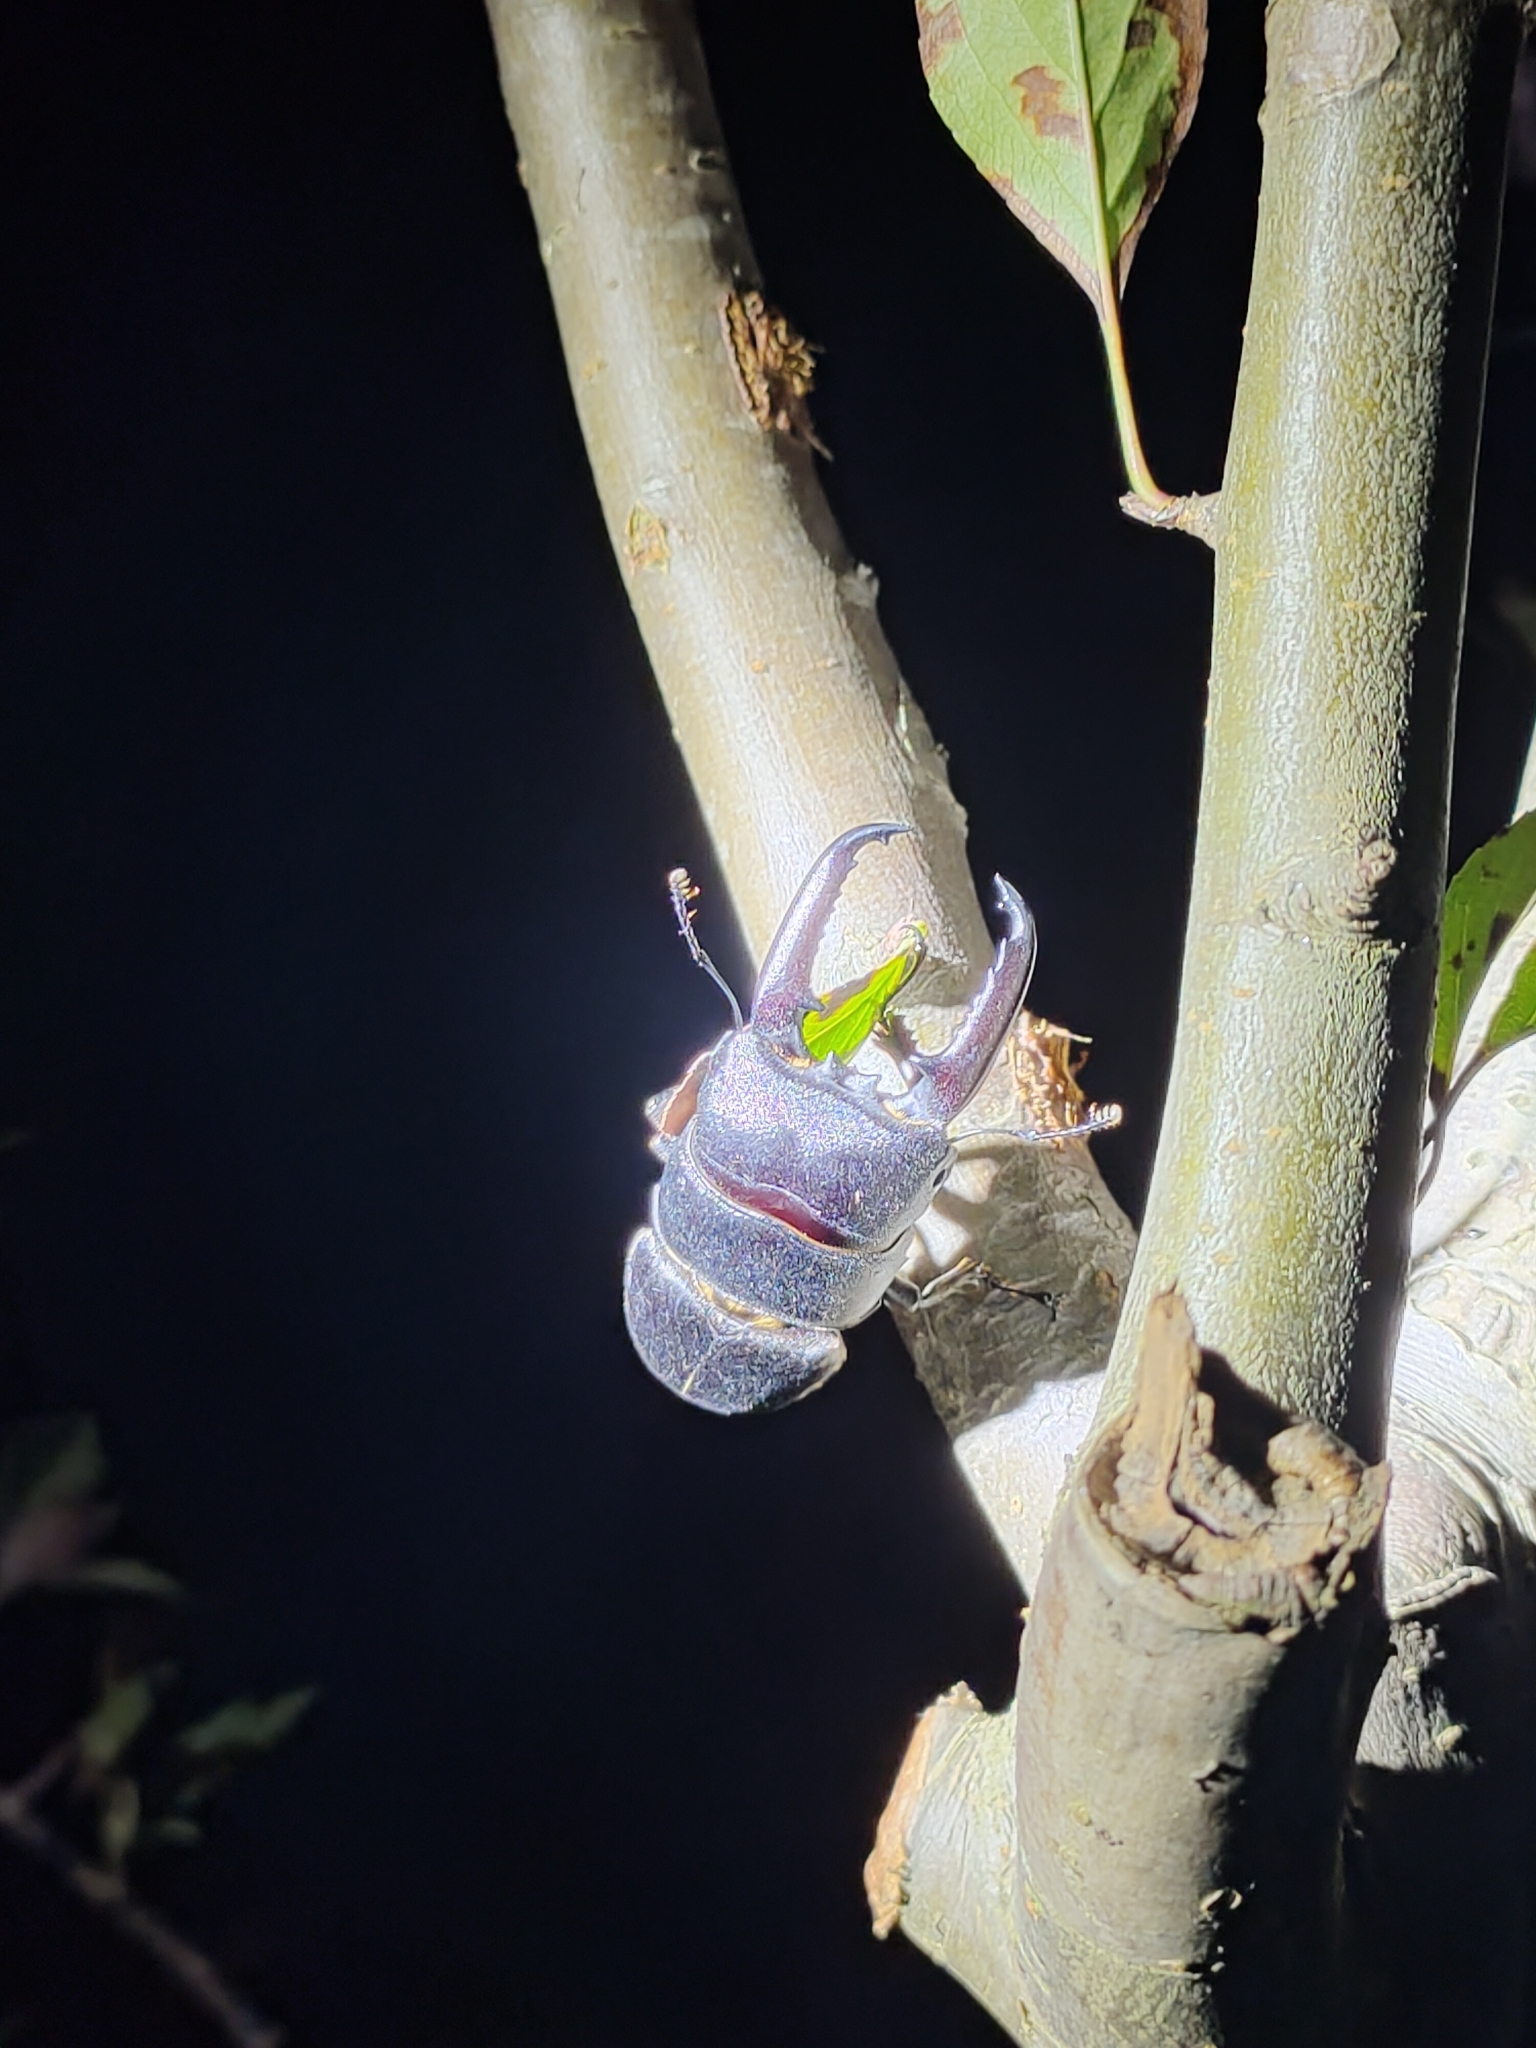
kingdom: Animalia
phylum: Arthropoda
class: Insecta
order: Coleoptera
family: Lucanidae
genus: Serrognathus
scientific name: Serrognathus titanus
